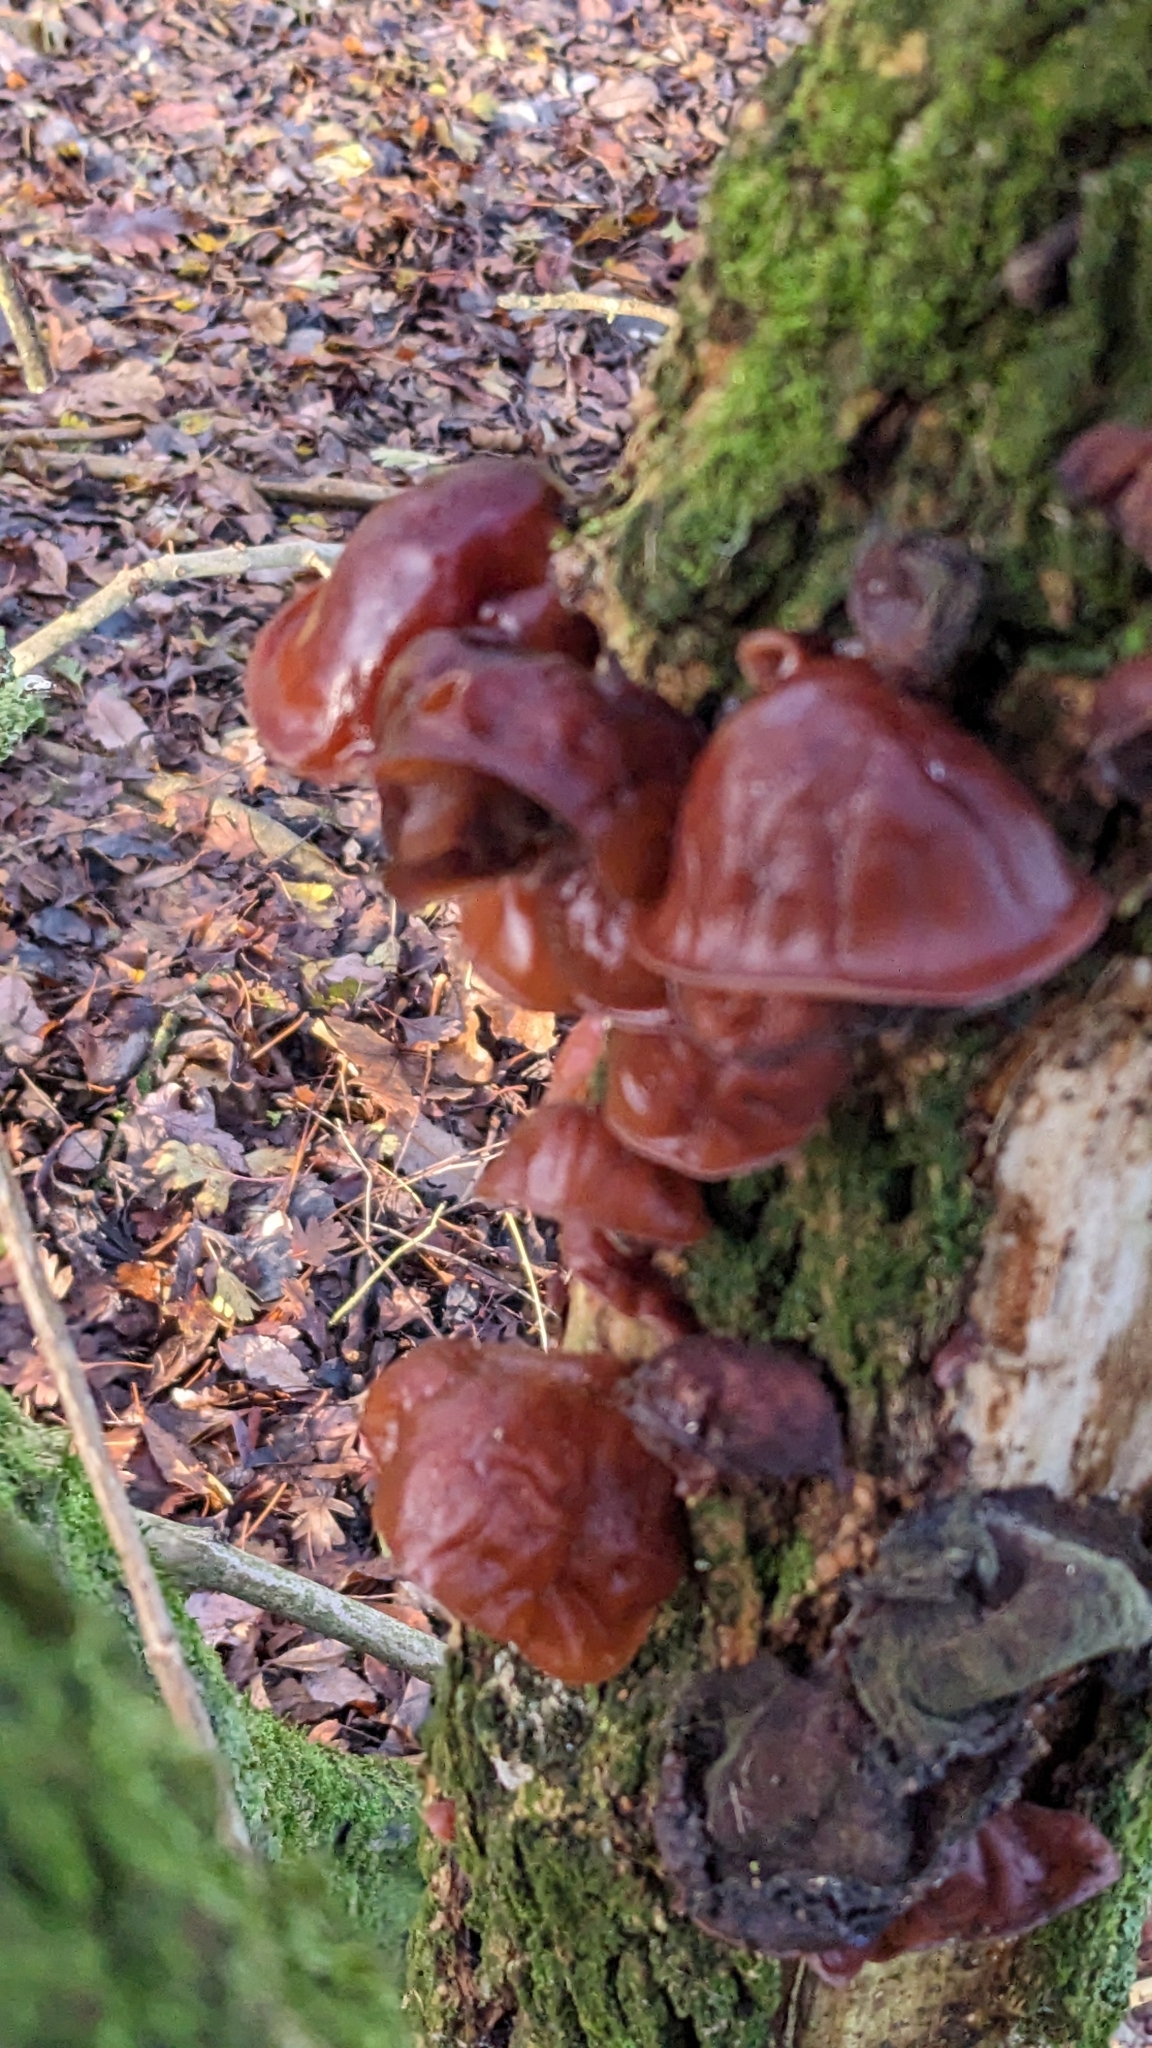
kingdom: Fungi
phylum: Basidiomycota
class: Agaricomycetes
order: Auriculariales
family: Auriculariaceae
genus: Auricularia
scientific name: Auricularia auricula-judae
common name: Jelly ear
